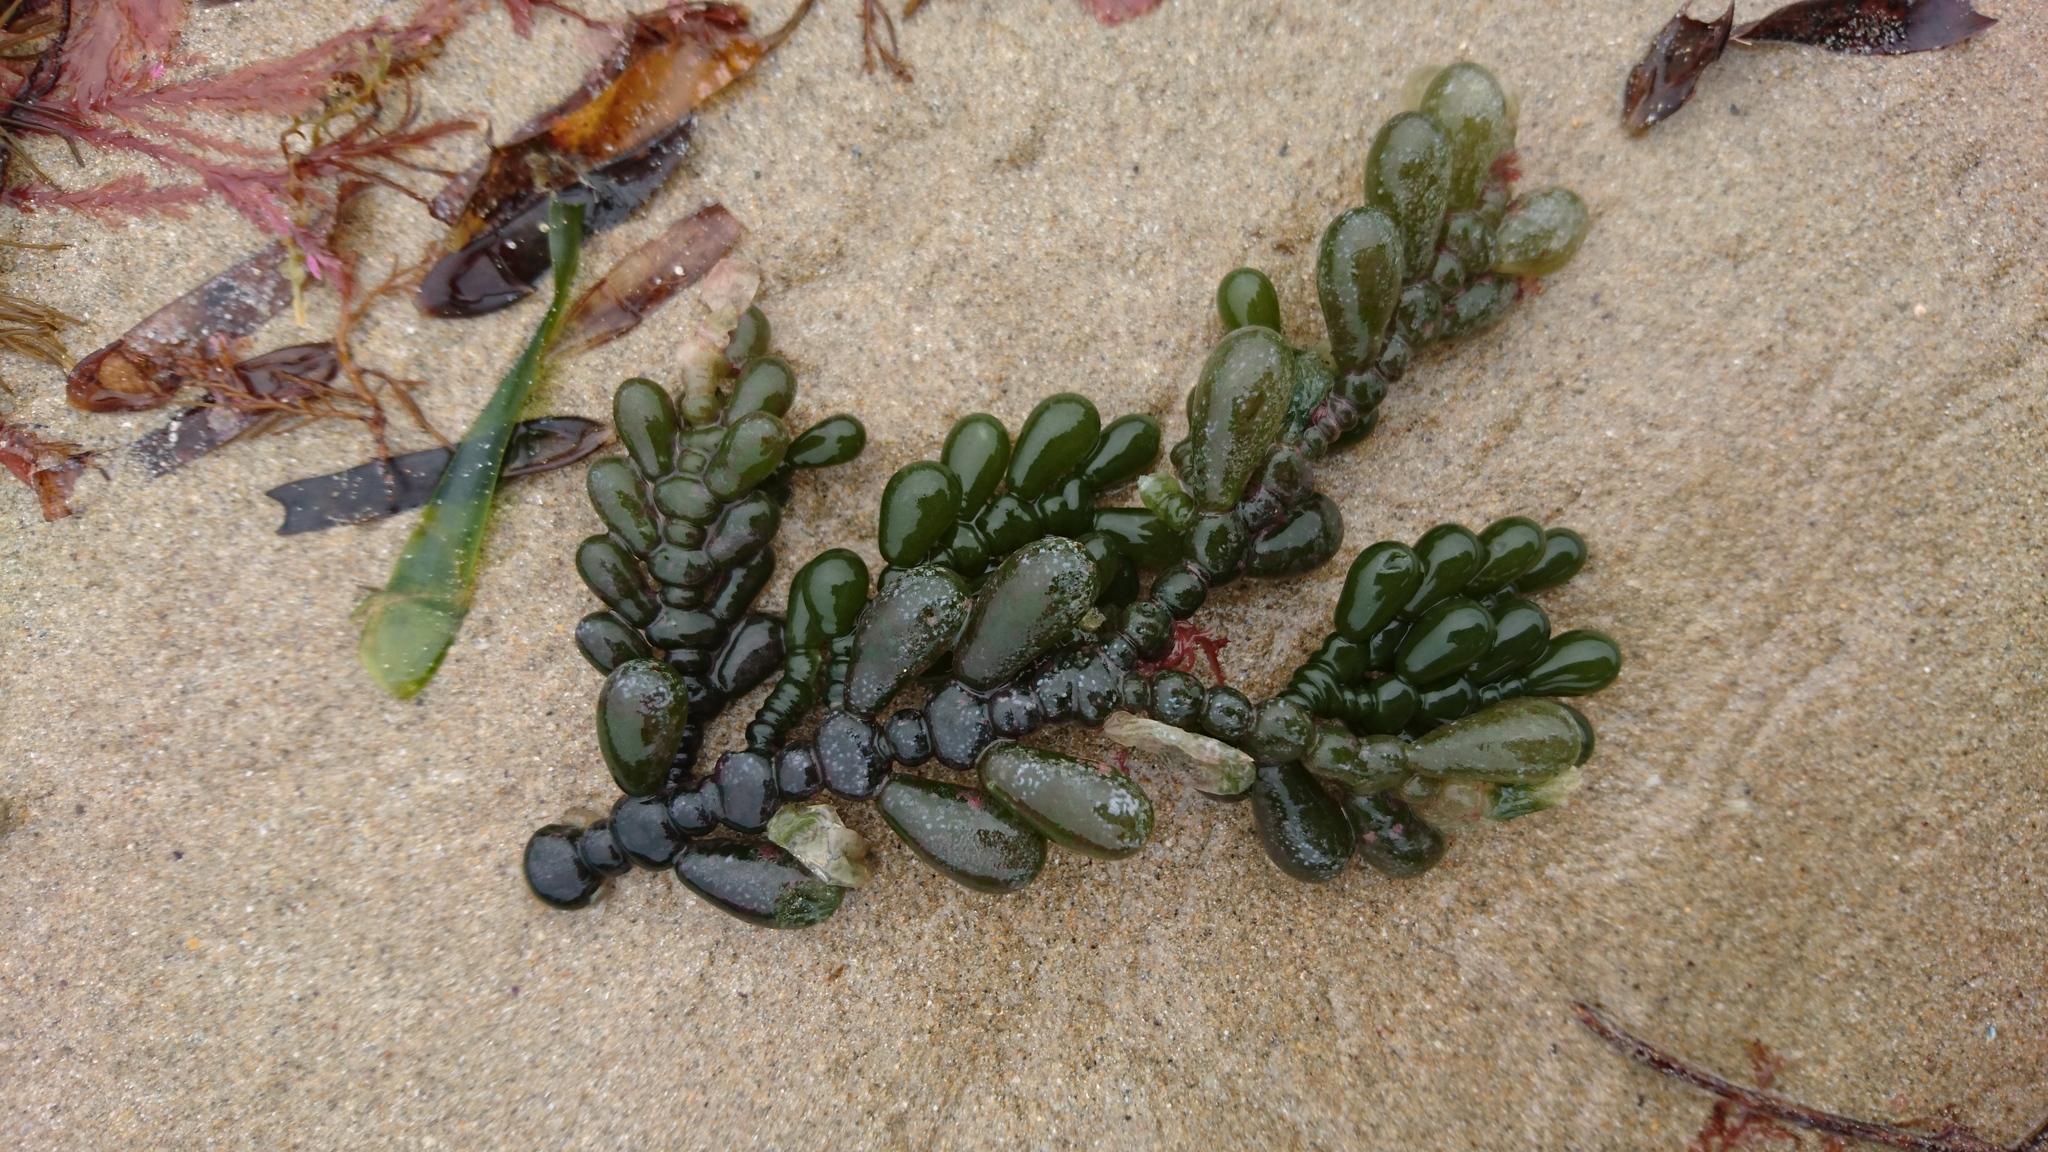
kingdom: Plantae
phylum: Chlorophyta
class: Ulvophyceae
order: Bryopsidales
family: Caulerpaceae
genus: Caulerpa
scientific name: Caulerpa cactoides
